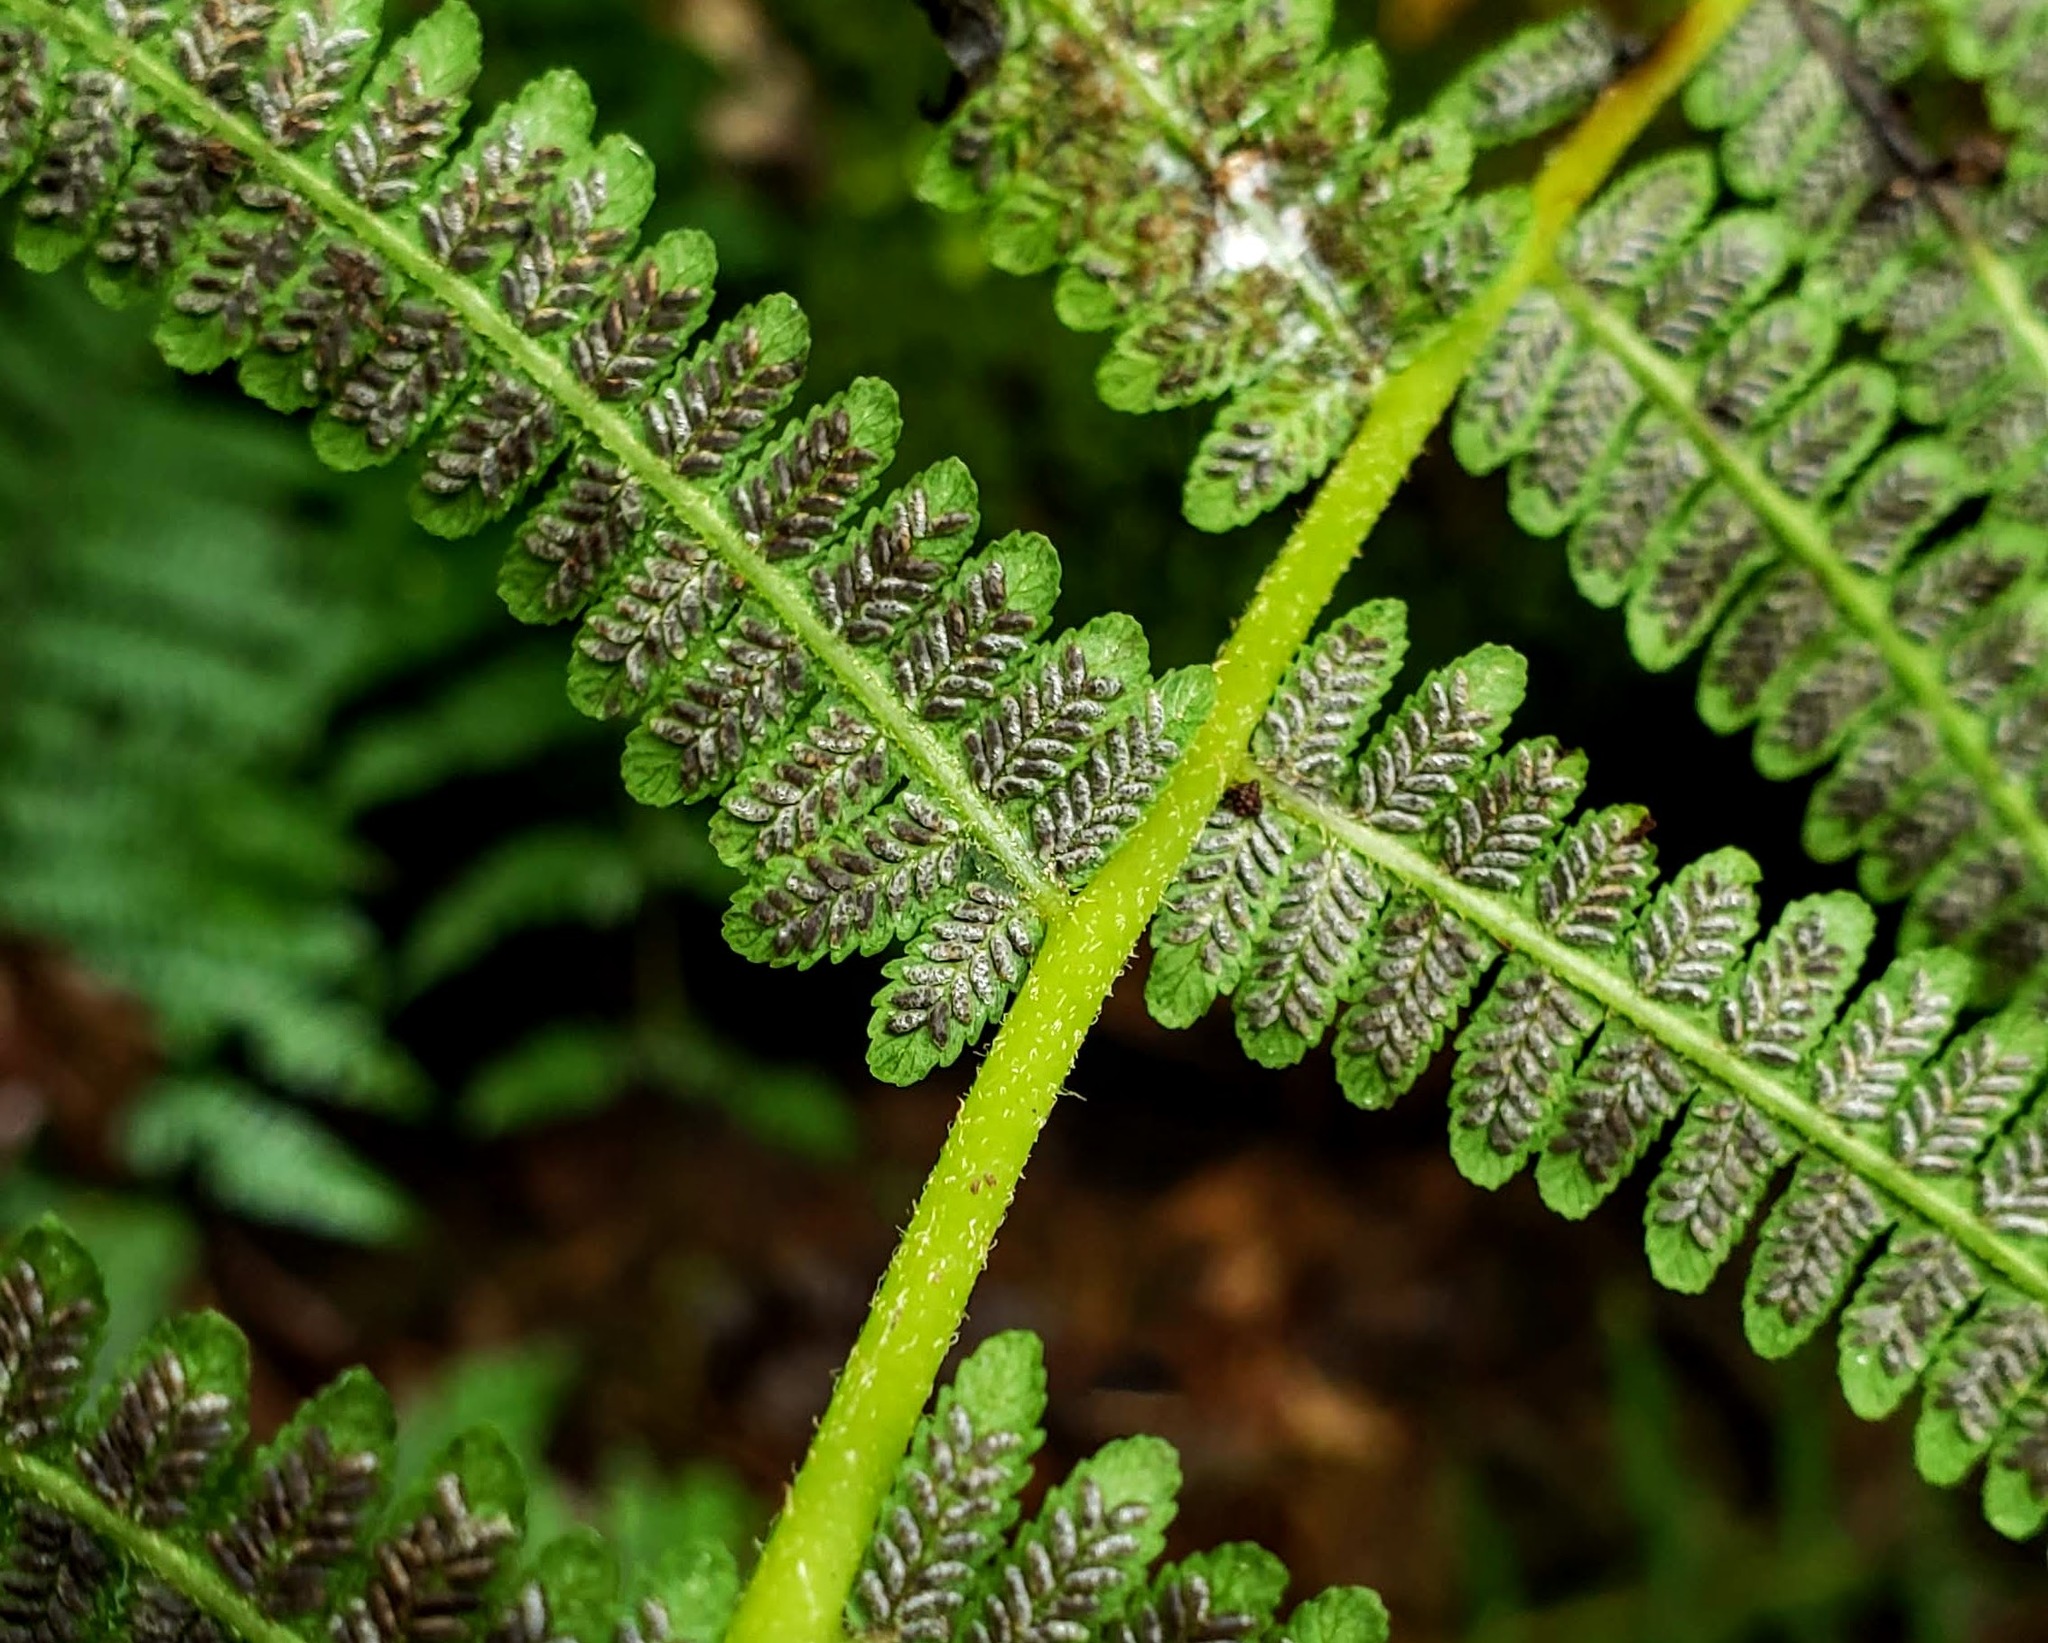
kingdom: Plantae
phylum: Tracheophyta
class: Polypodiopsida
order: Polypodiales
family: Athyriaceae
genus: Deparia
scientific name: Deparia acrostichoides
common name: Silver false spleenwort
